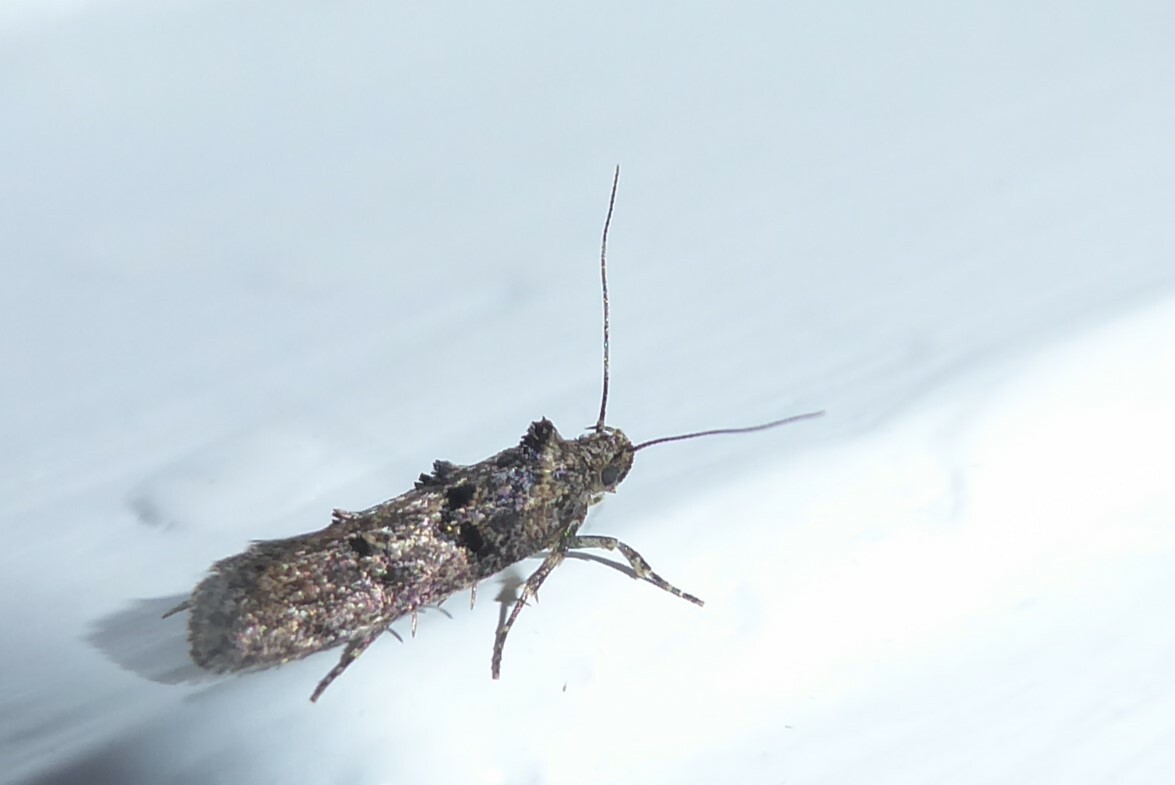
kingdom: Animalia
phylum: Arthropoda
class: Insecta
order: Lepidoptera
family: Oecophoridae
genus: Trachypepla
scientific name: Trachypepla anastrella
